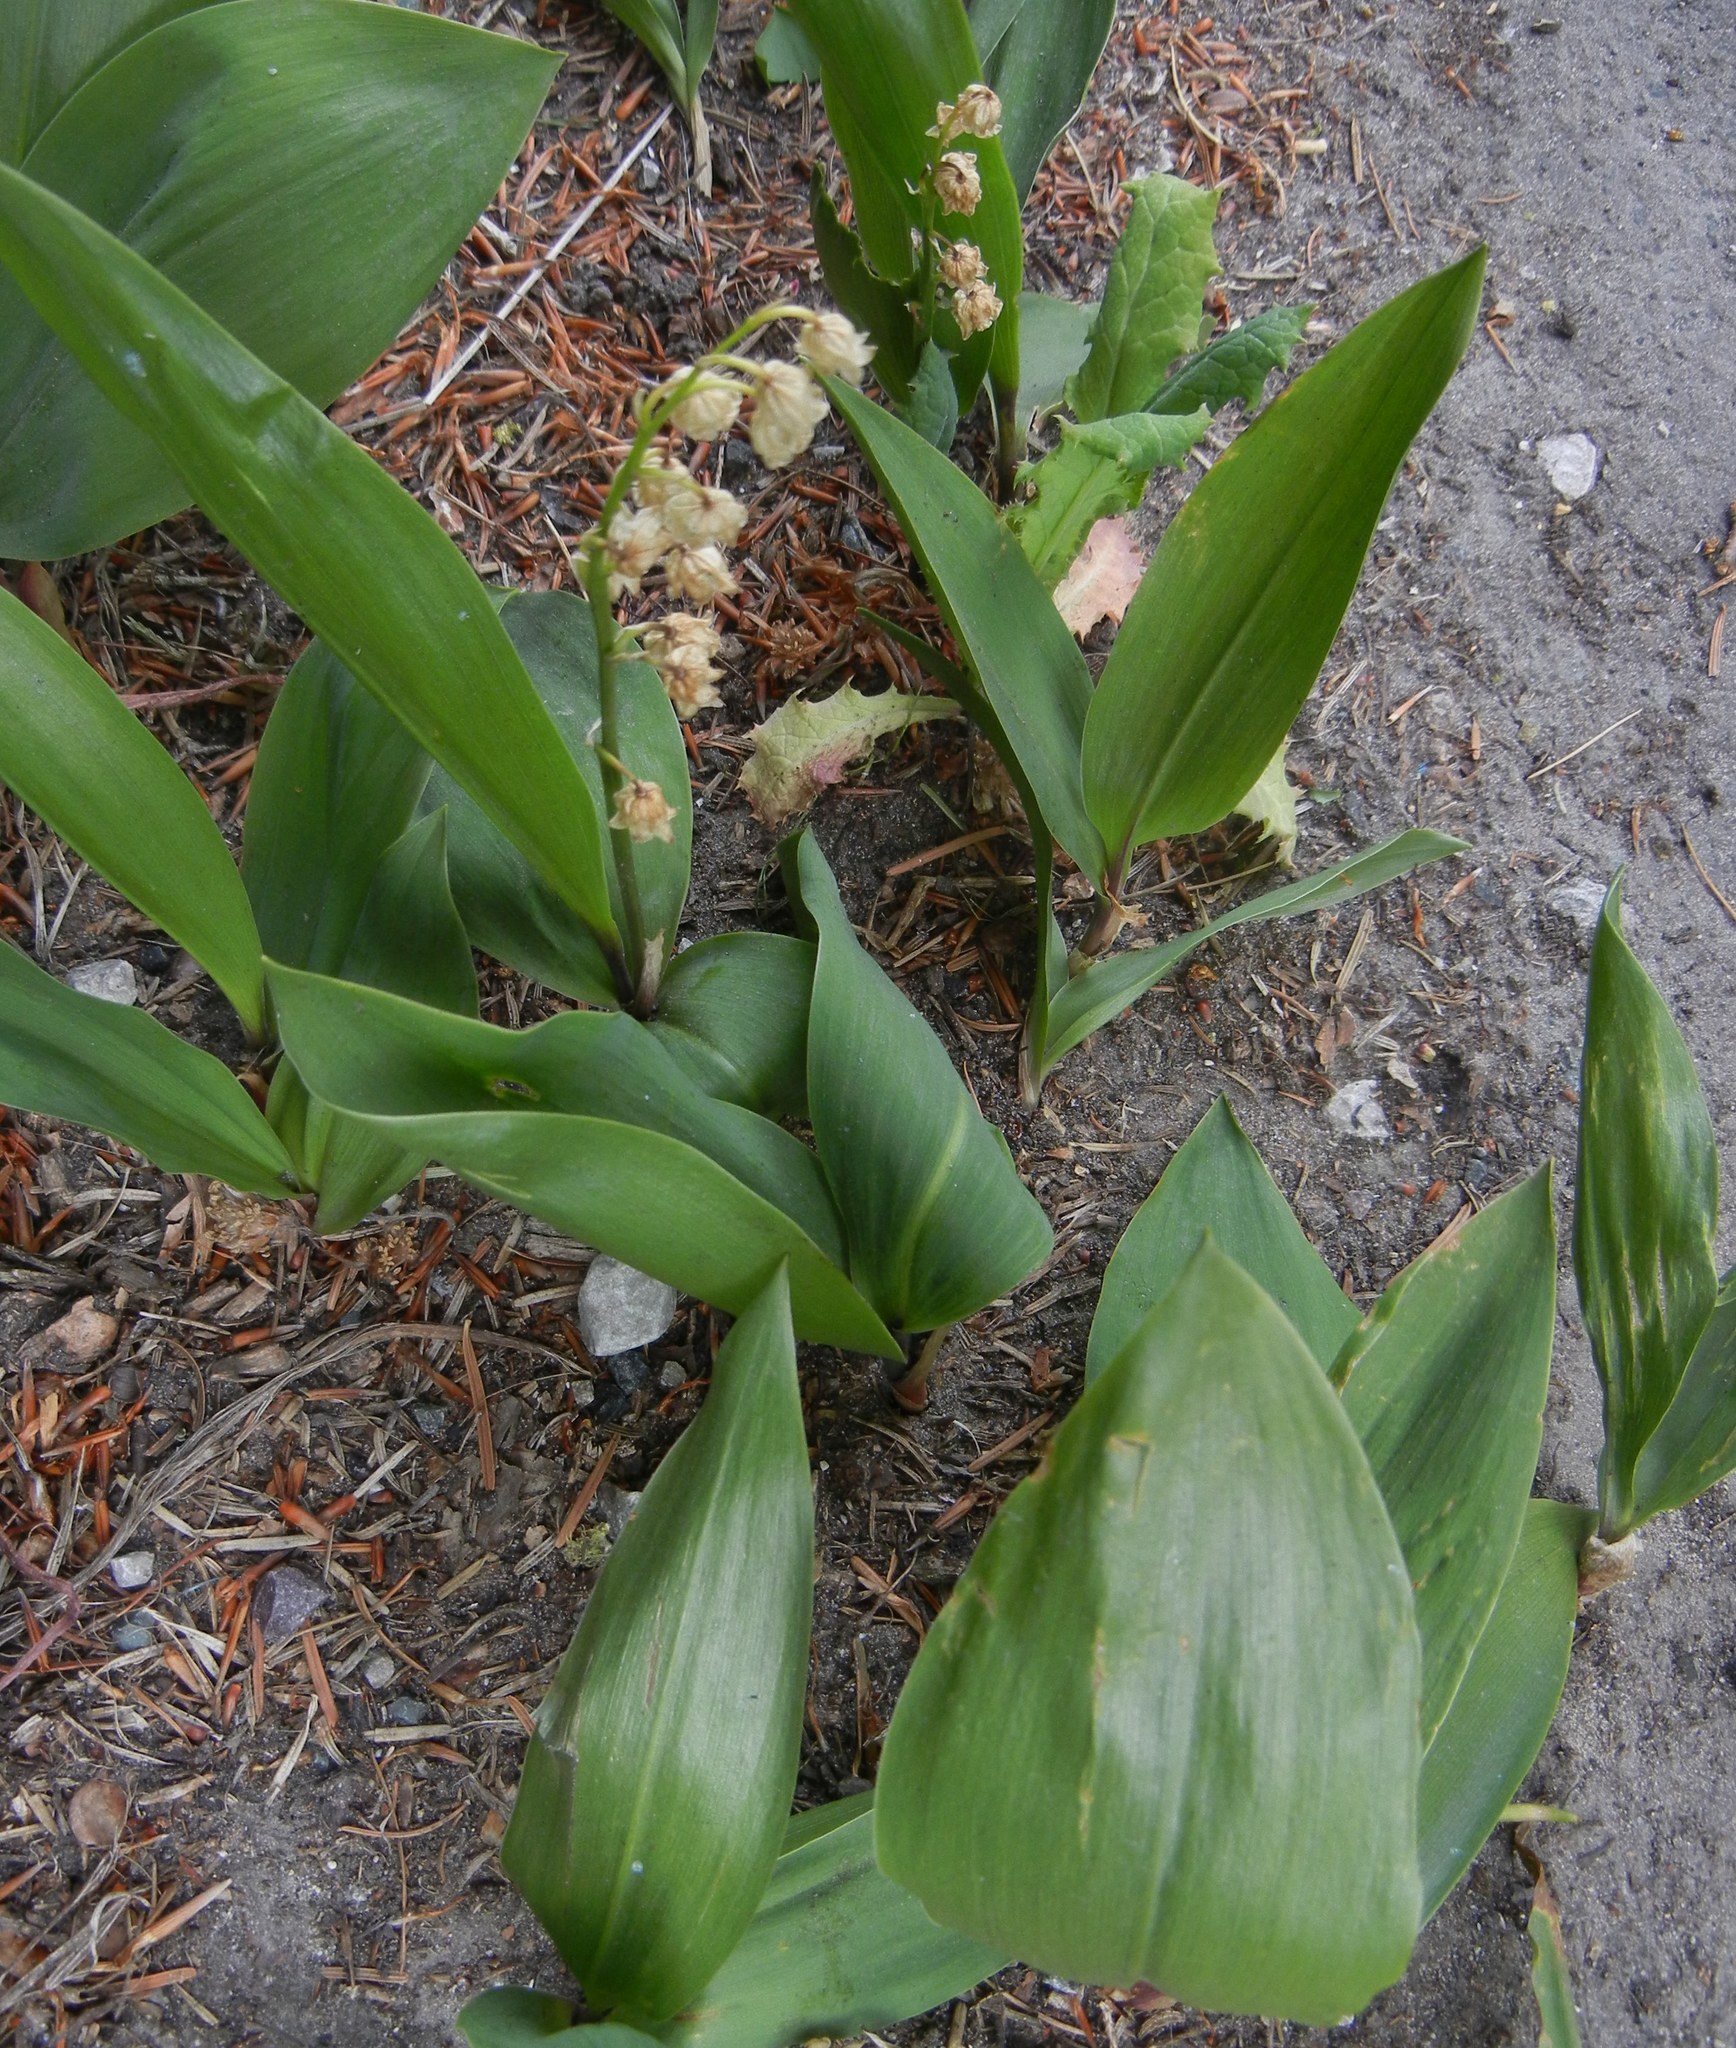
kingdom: Plantae
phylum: Tracheophyta
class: Liliopsida
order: Asparagales
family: Asparagaceae
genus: Convallaria
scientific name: Convallaria majalis
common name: Lily-of-the-valley
